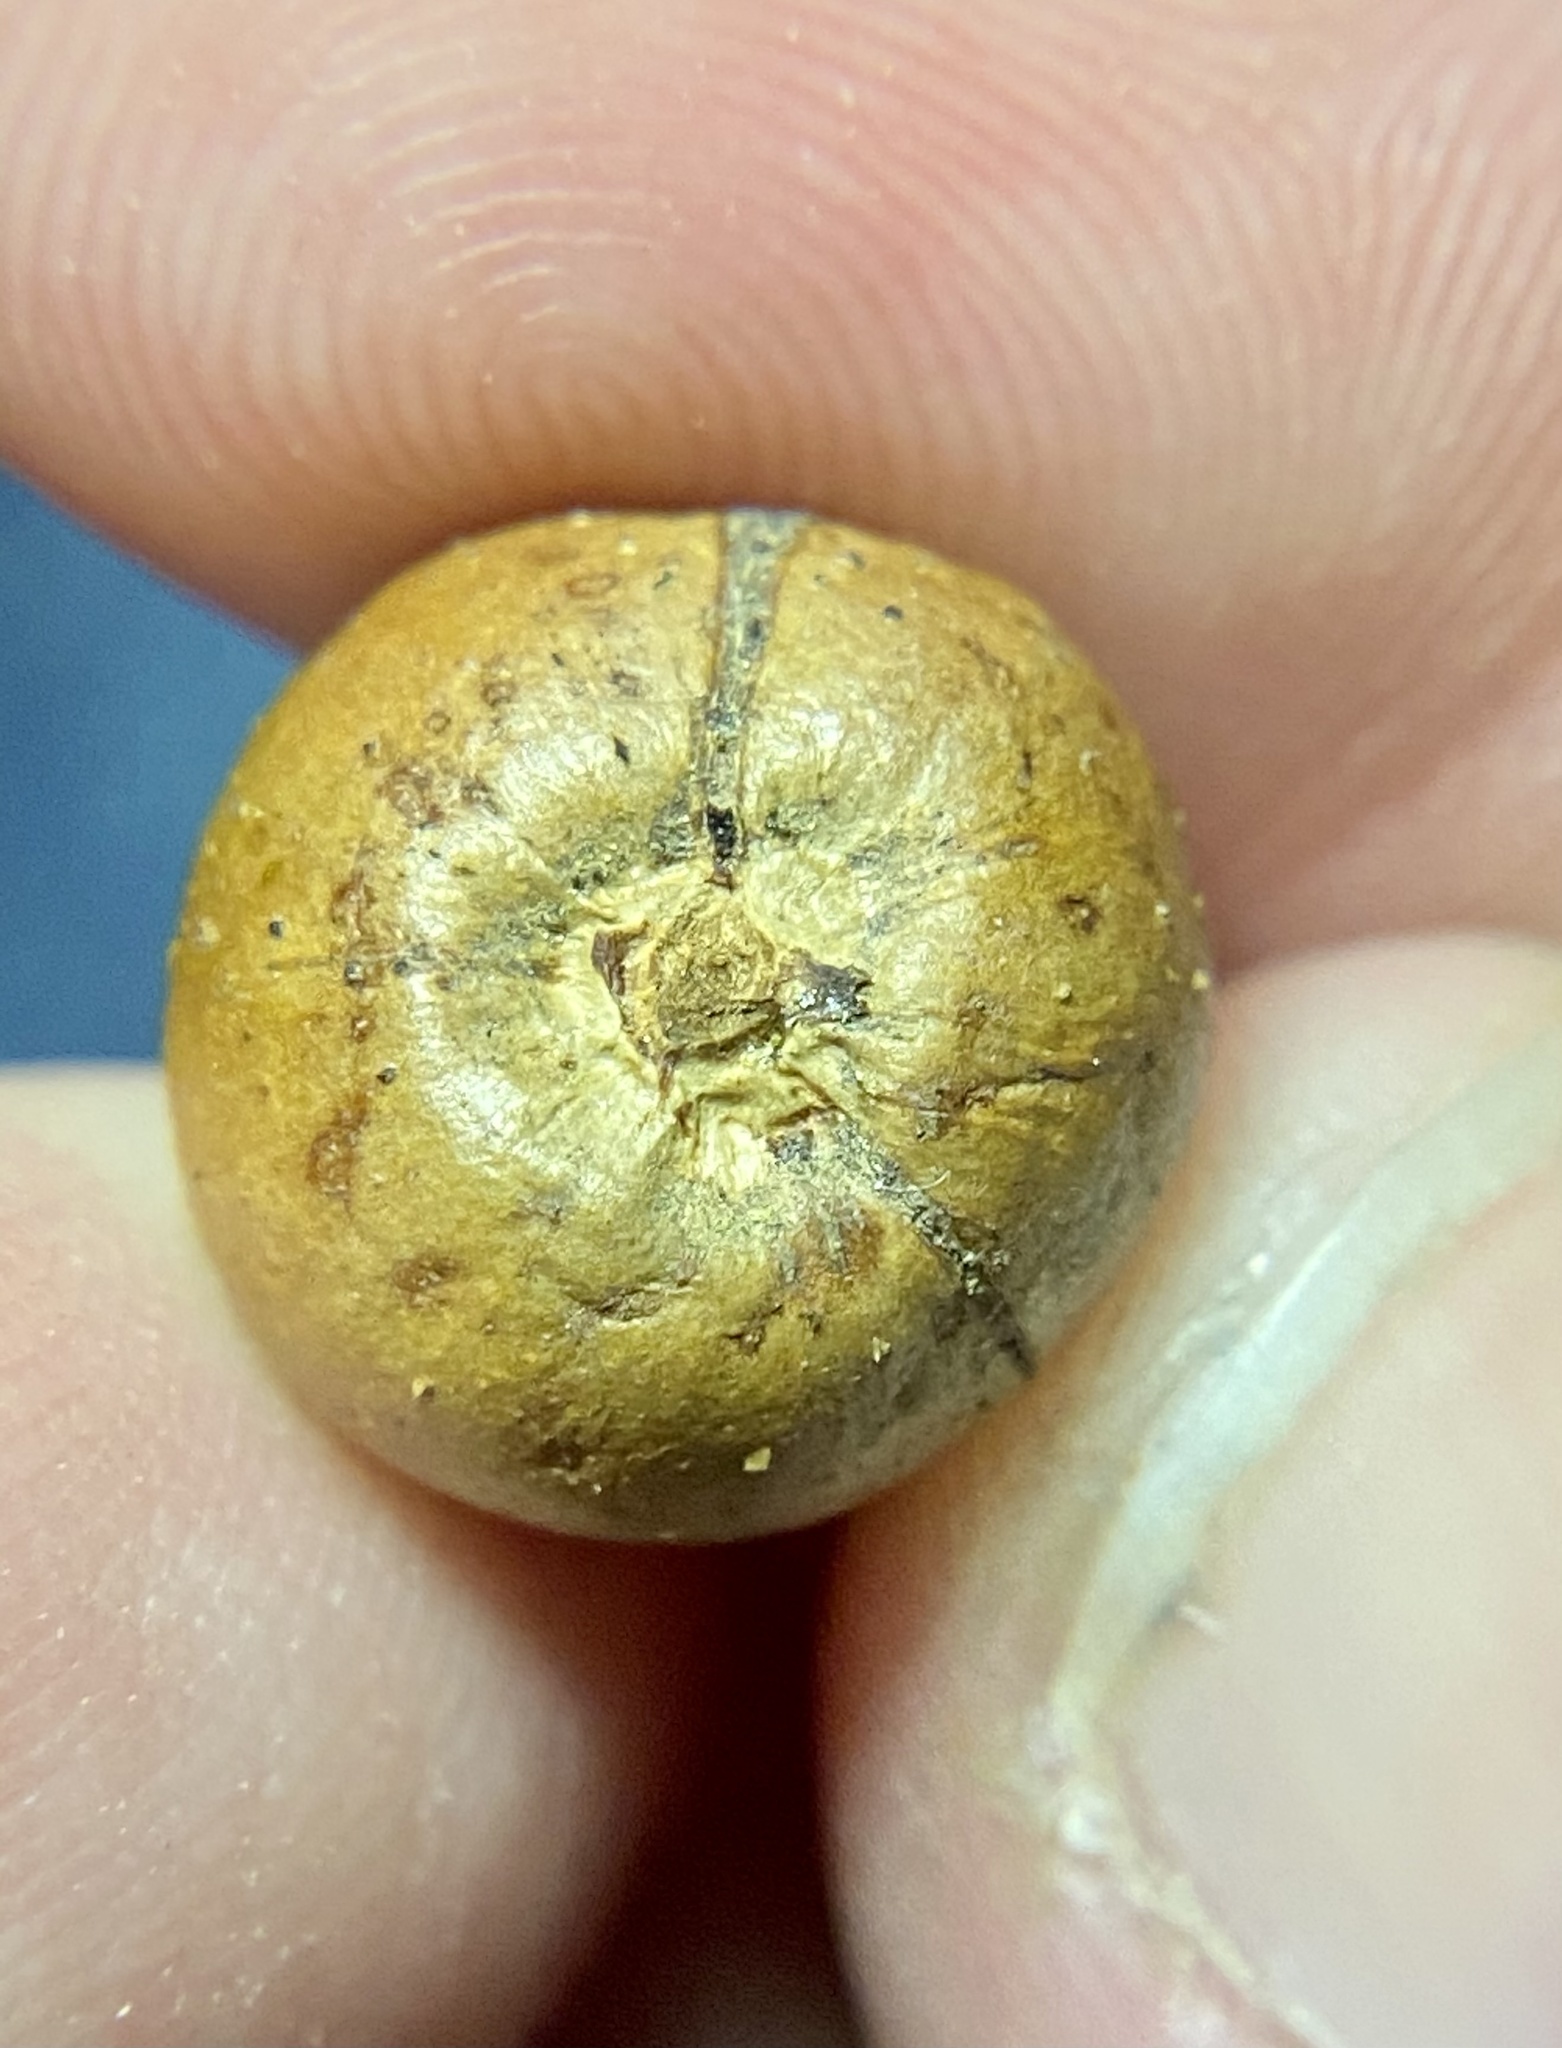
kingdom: Animalia
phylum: Arthropoda
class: Insecta
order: Hymenoptera
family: Cynipidae
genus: Disholcaspis
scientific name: Disholcaspis quercusglobulus
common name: Round bullet gall wasp
